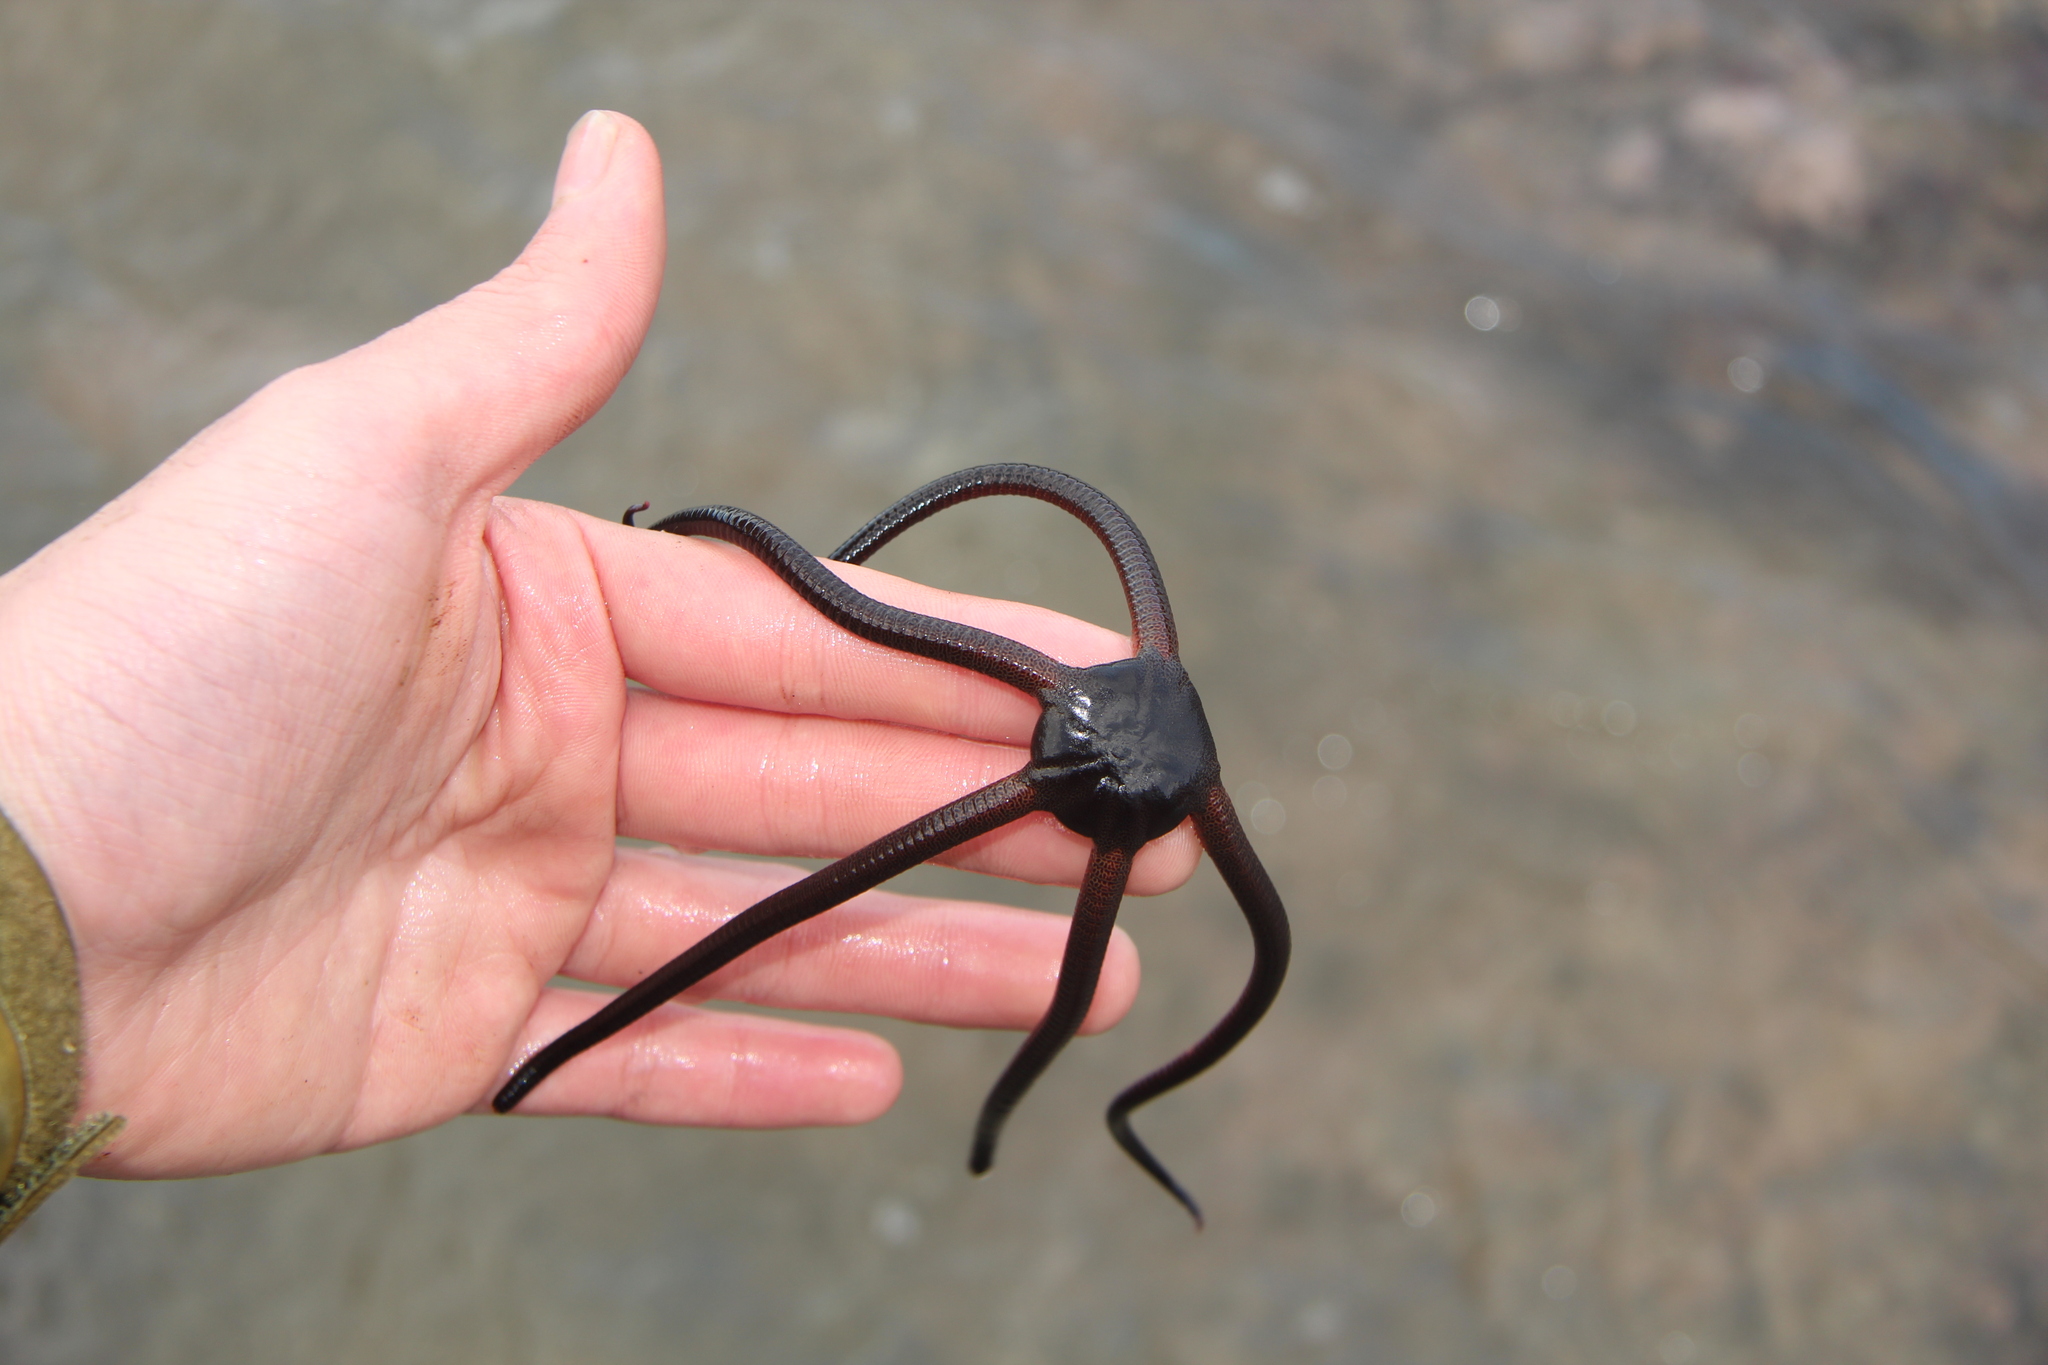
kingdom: Animalia
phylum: Echinodermata
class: Ophiuroidea
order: Ophiacanthida
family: Ophiodermatidae
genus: Ophiopsammus
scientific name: Ophiopsammus maculata
